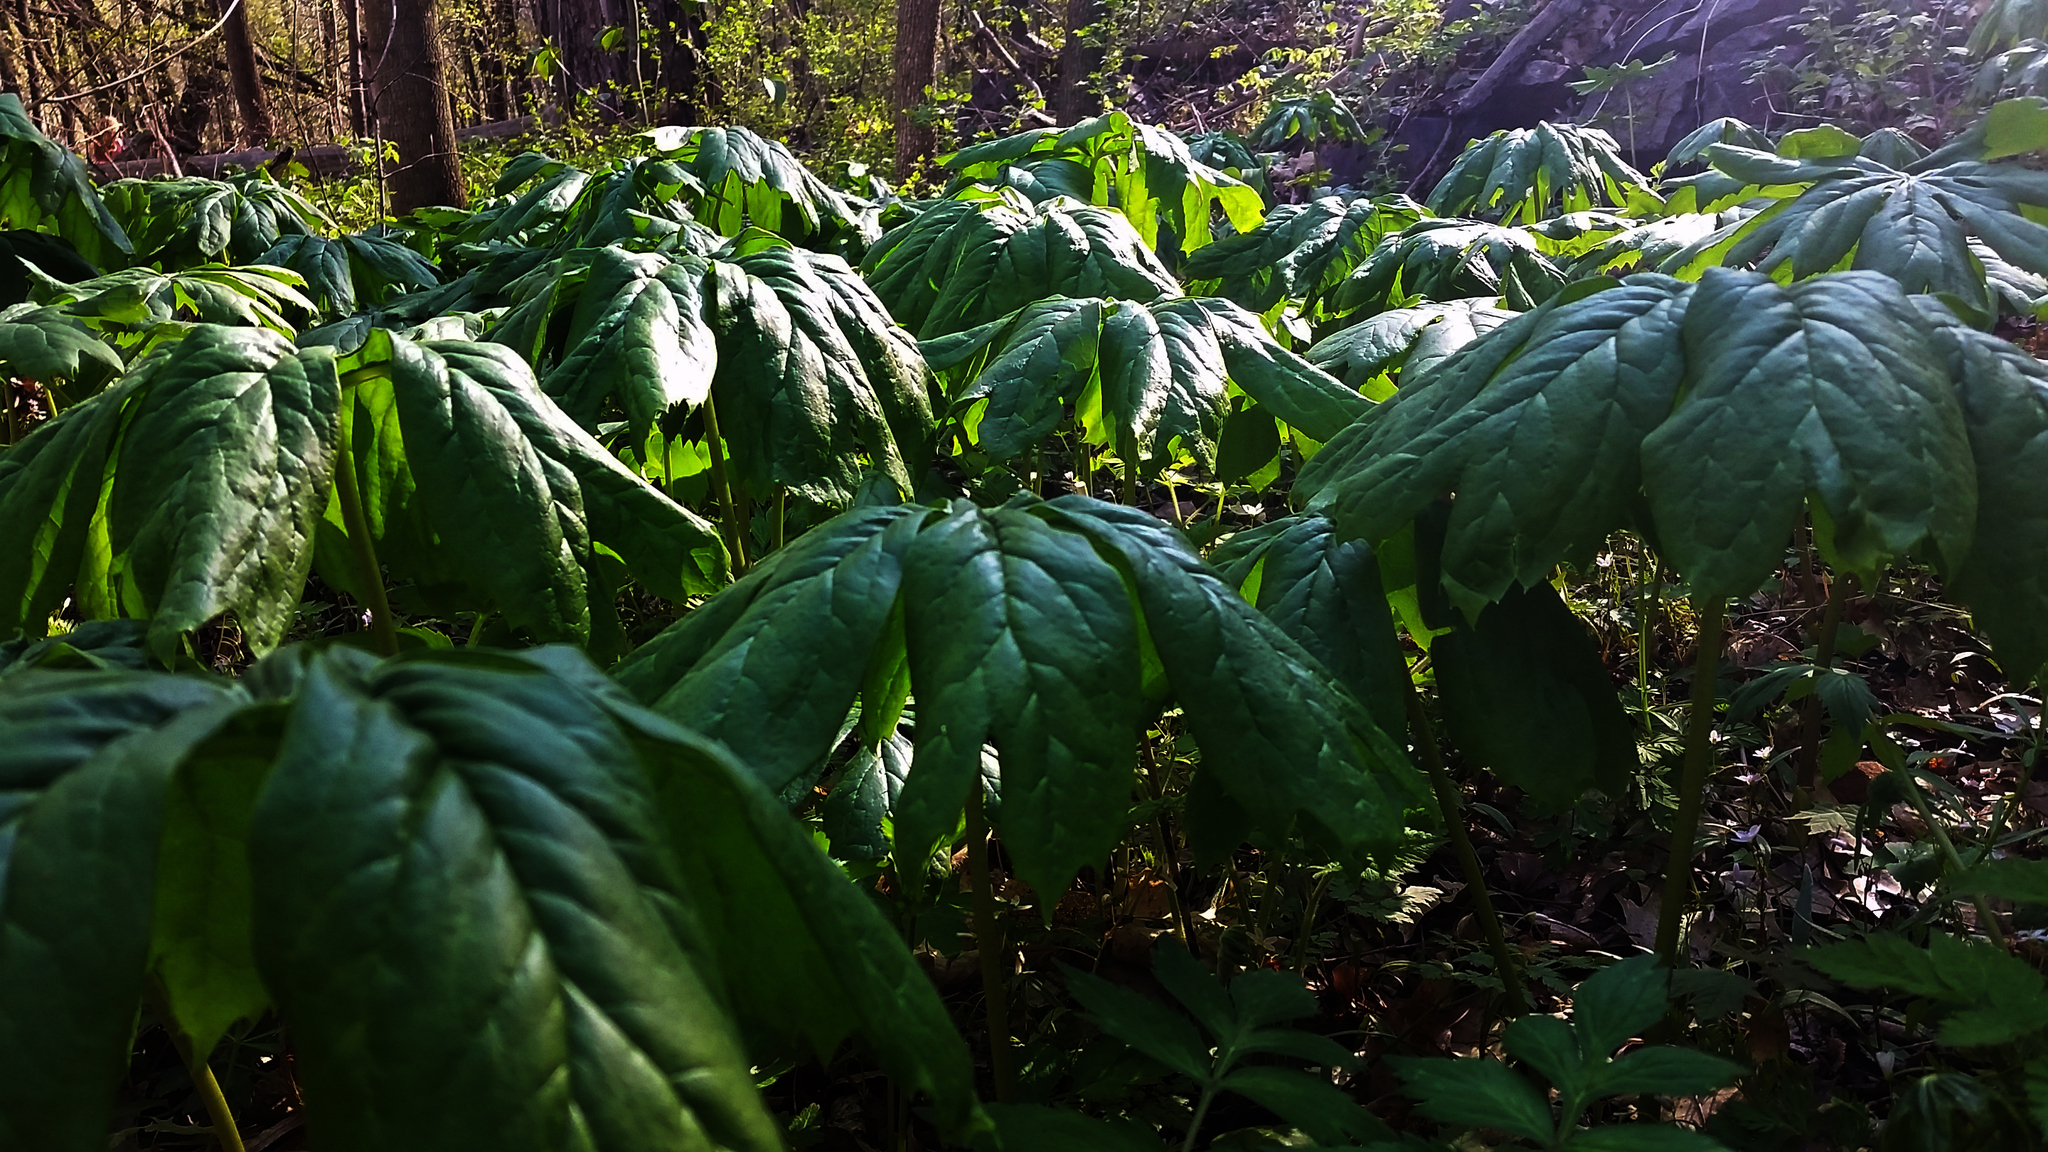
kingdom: Plantae
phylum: Tracheophyta
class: Magnoliopsida
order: Ranunculales
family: Berberidaceae
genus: Podophyllum
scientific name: Podophyllum peltatum
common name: Wild mandrake
